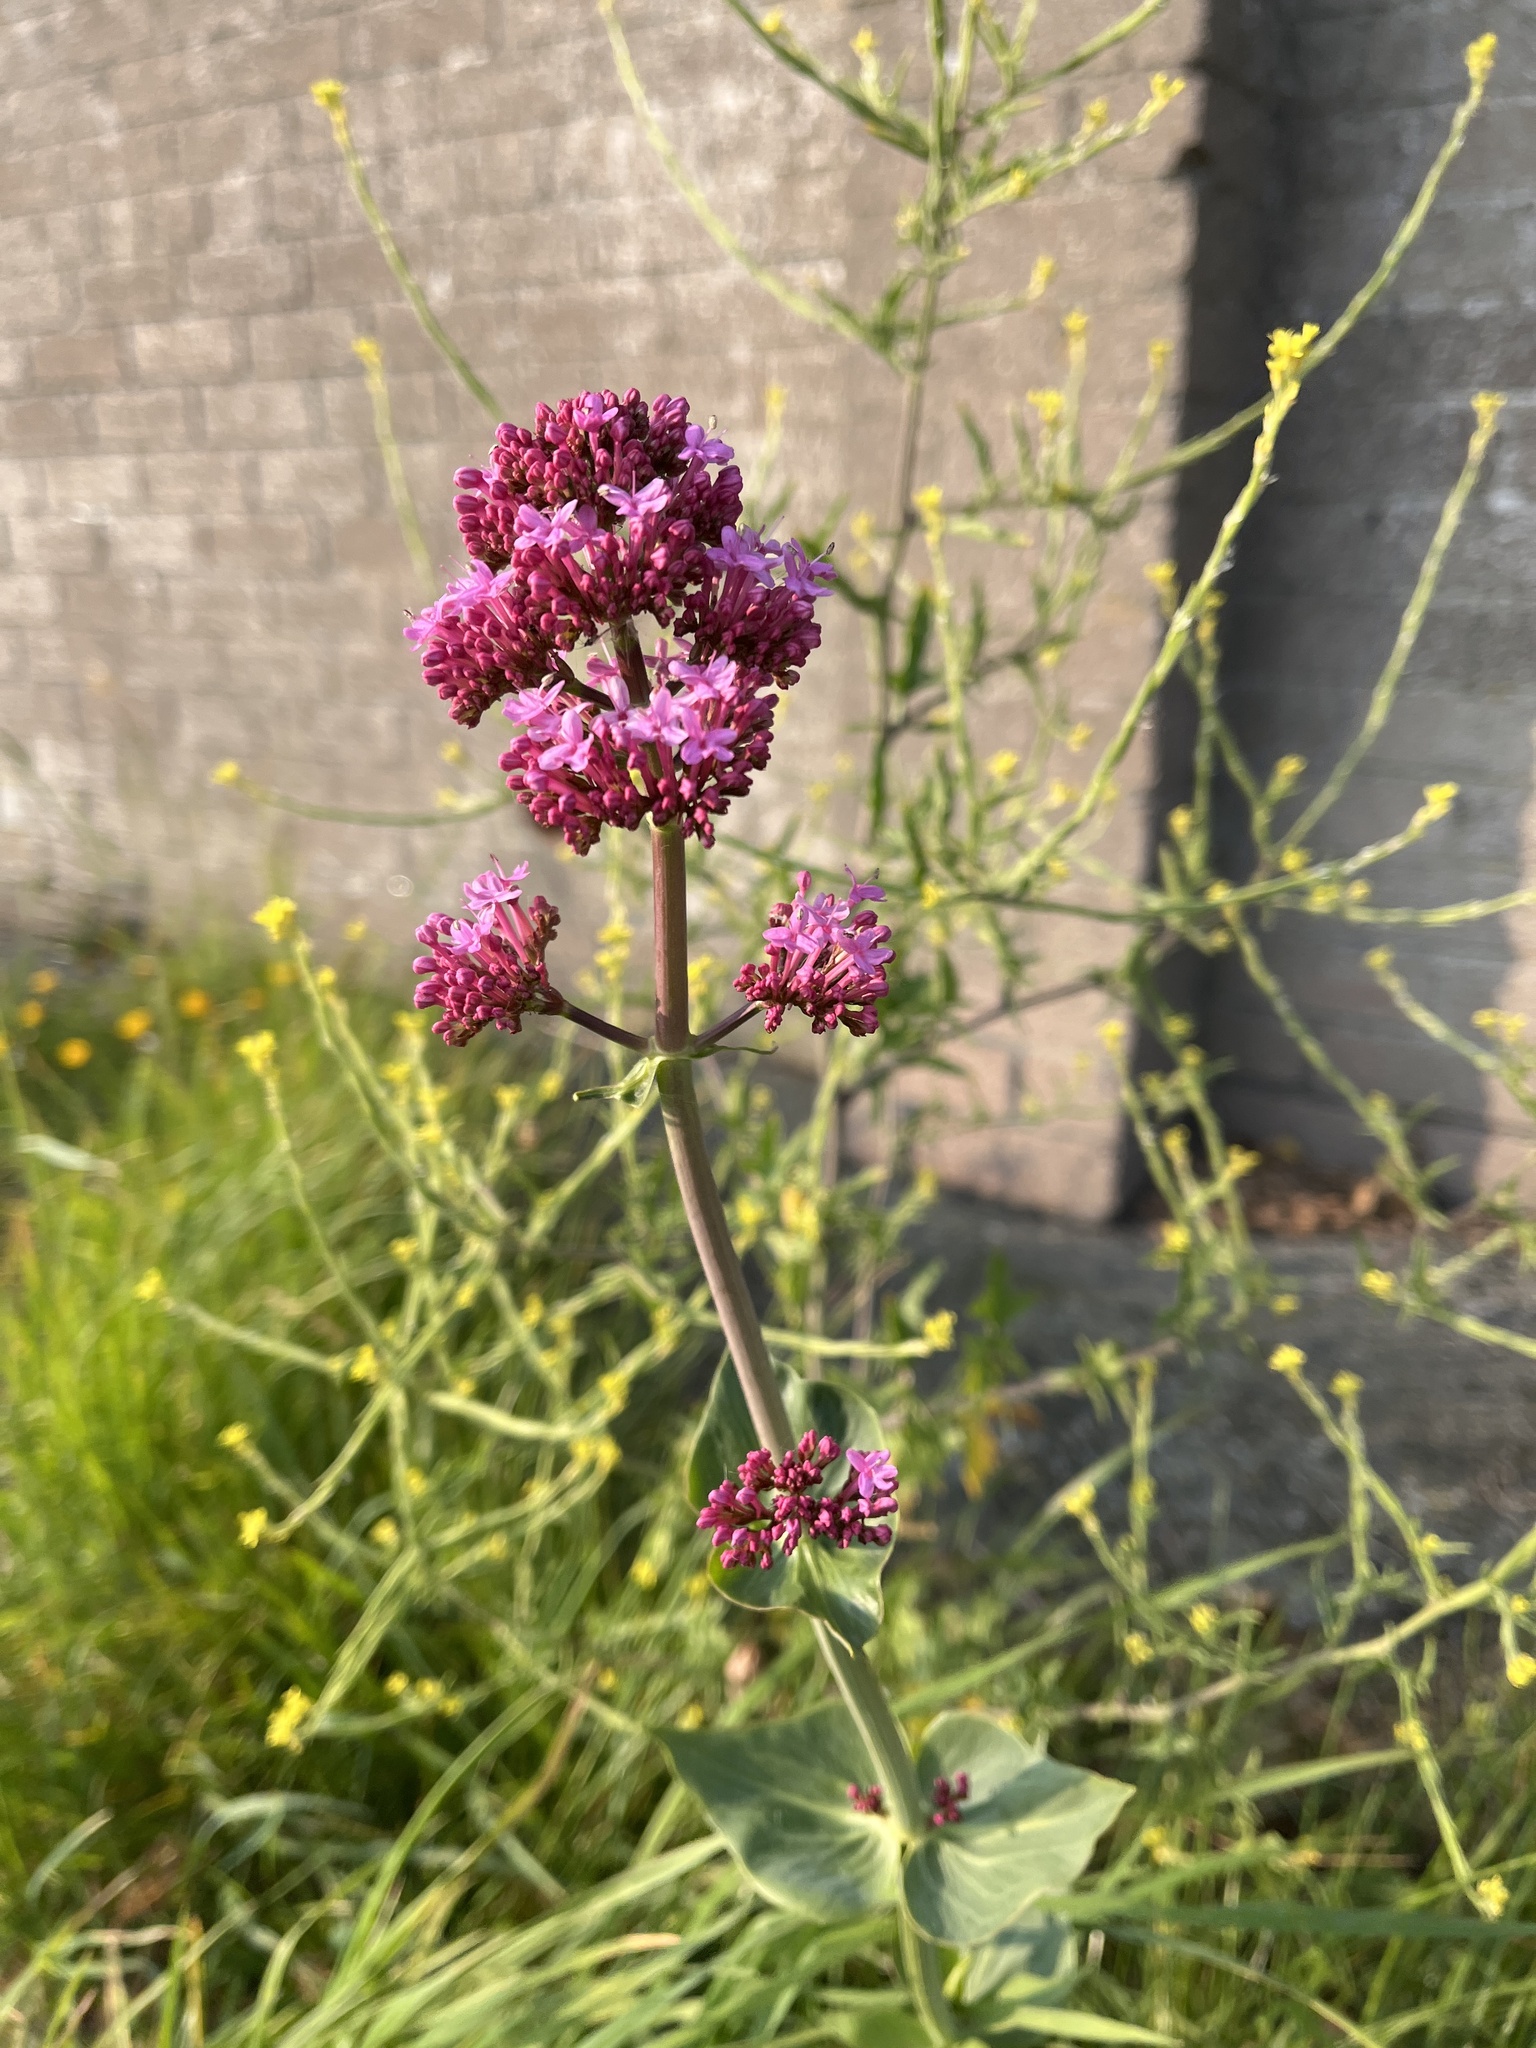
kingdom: Plantae
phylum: Tracheophyta
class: Magnoliopsida
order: Dipsacales
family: Caprifoliaceae
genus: Centranthus
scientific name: Centranthus ruber
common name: Red valerian
